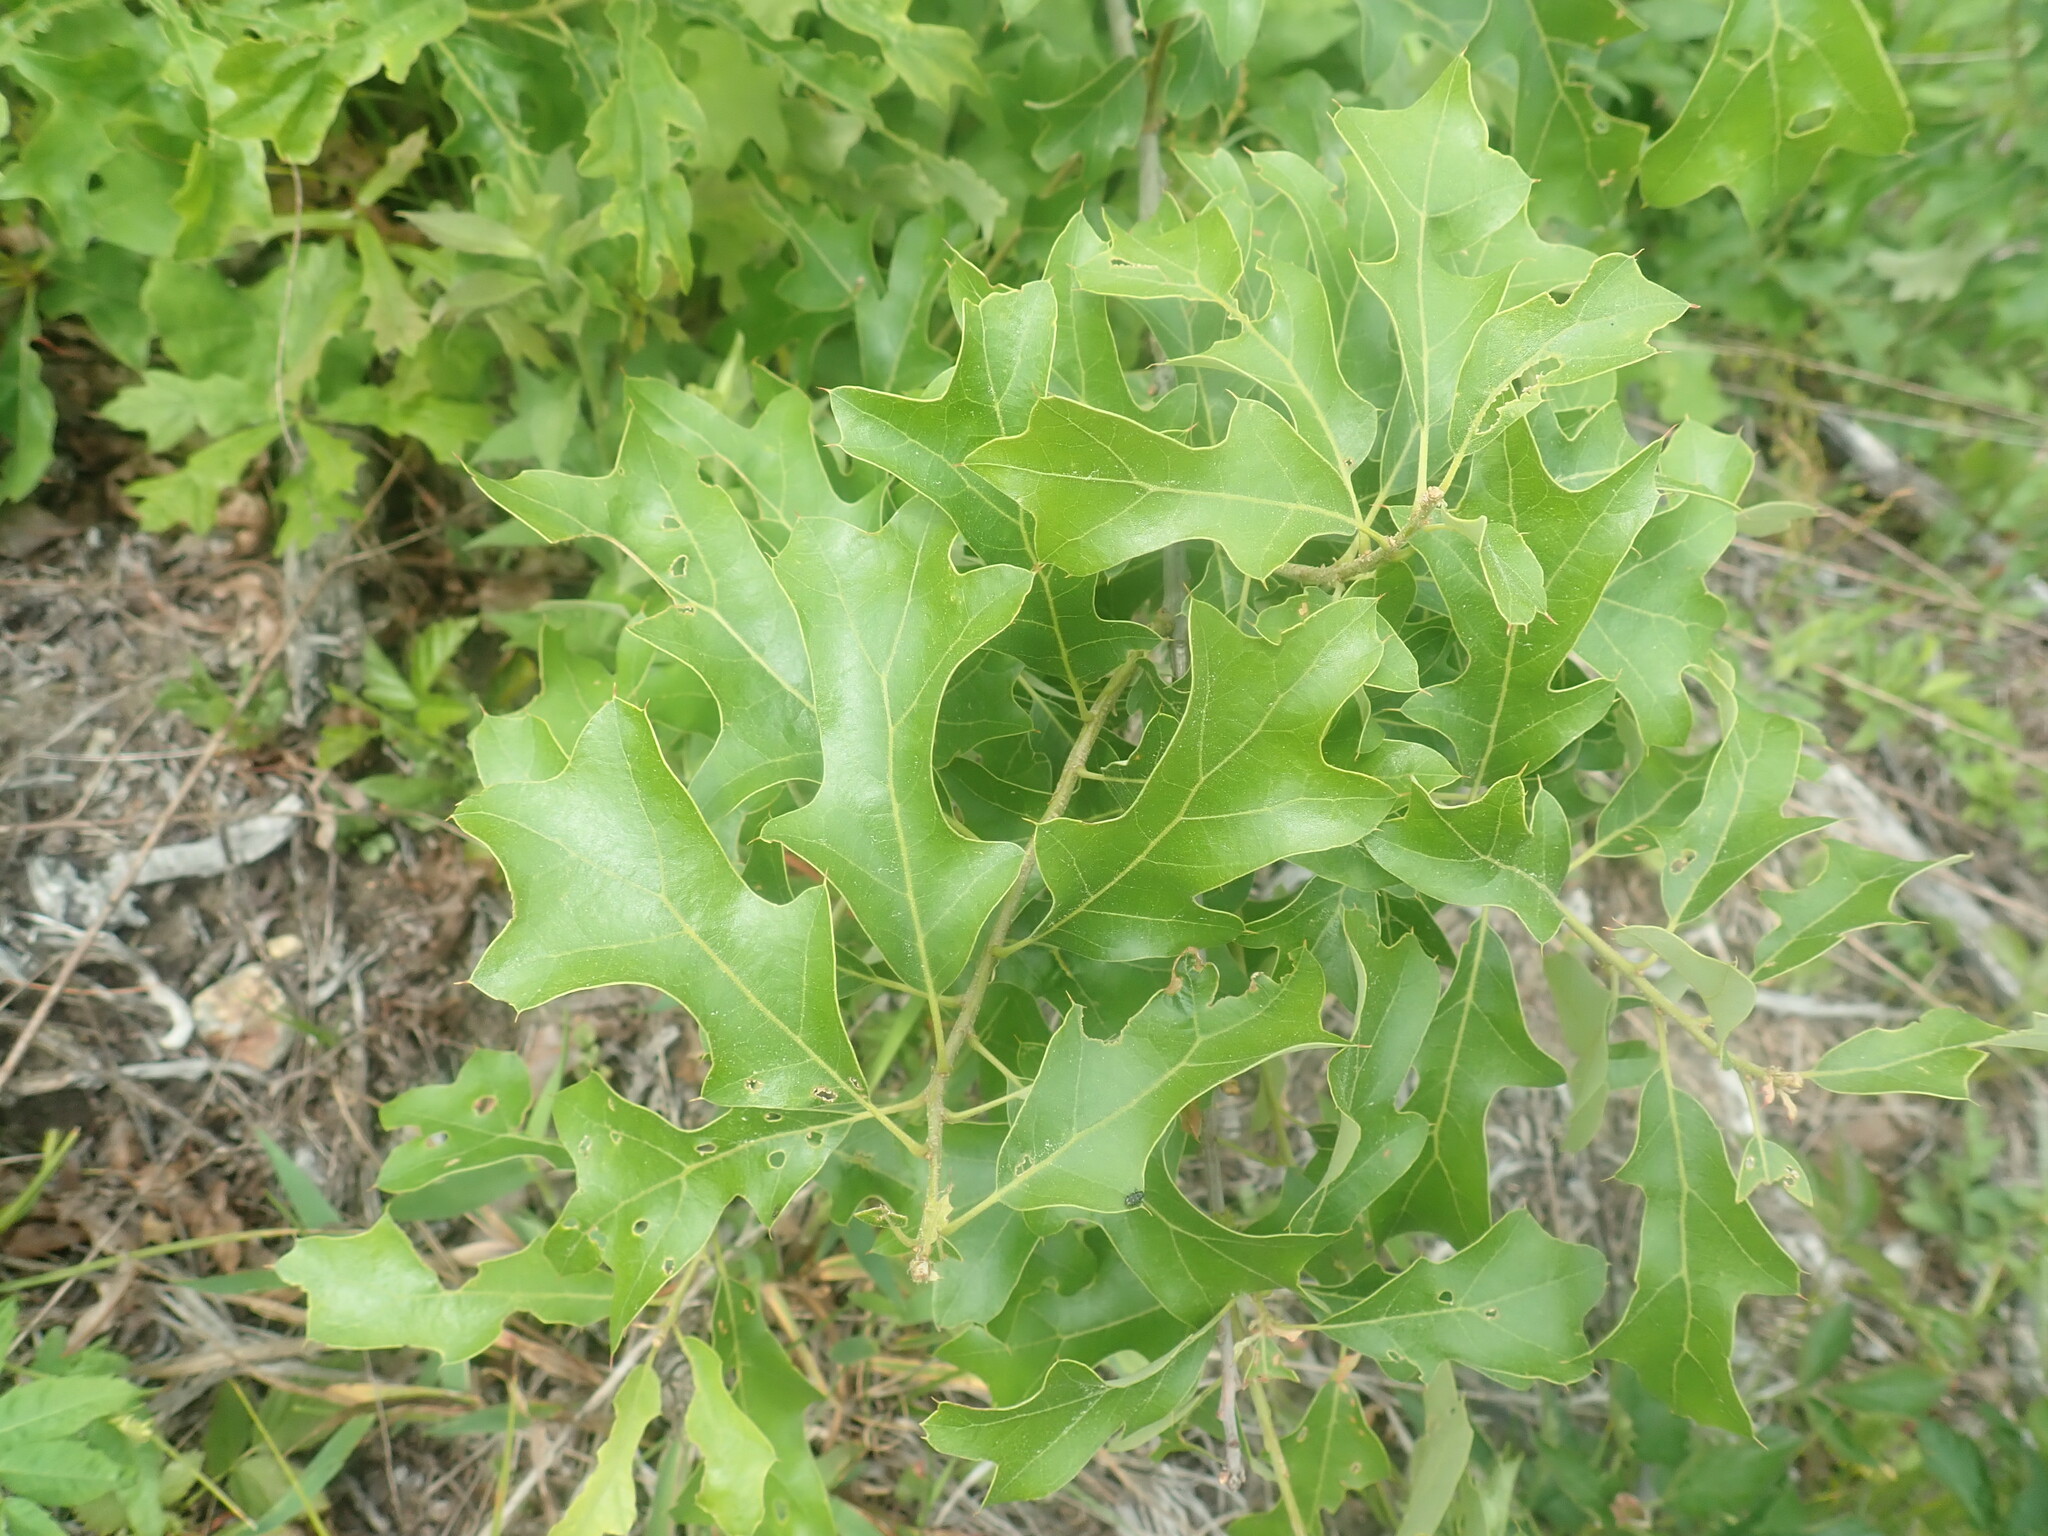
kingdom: Plantae
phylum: Tracheophyta
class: Magnoliopsida
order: Fagales
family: Fagaceae
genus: Quercus
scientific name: Quercus ilicifolia
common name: Bear oak
